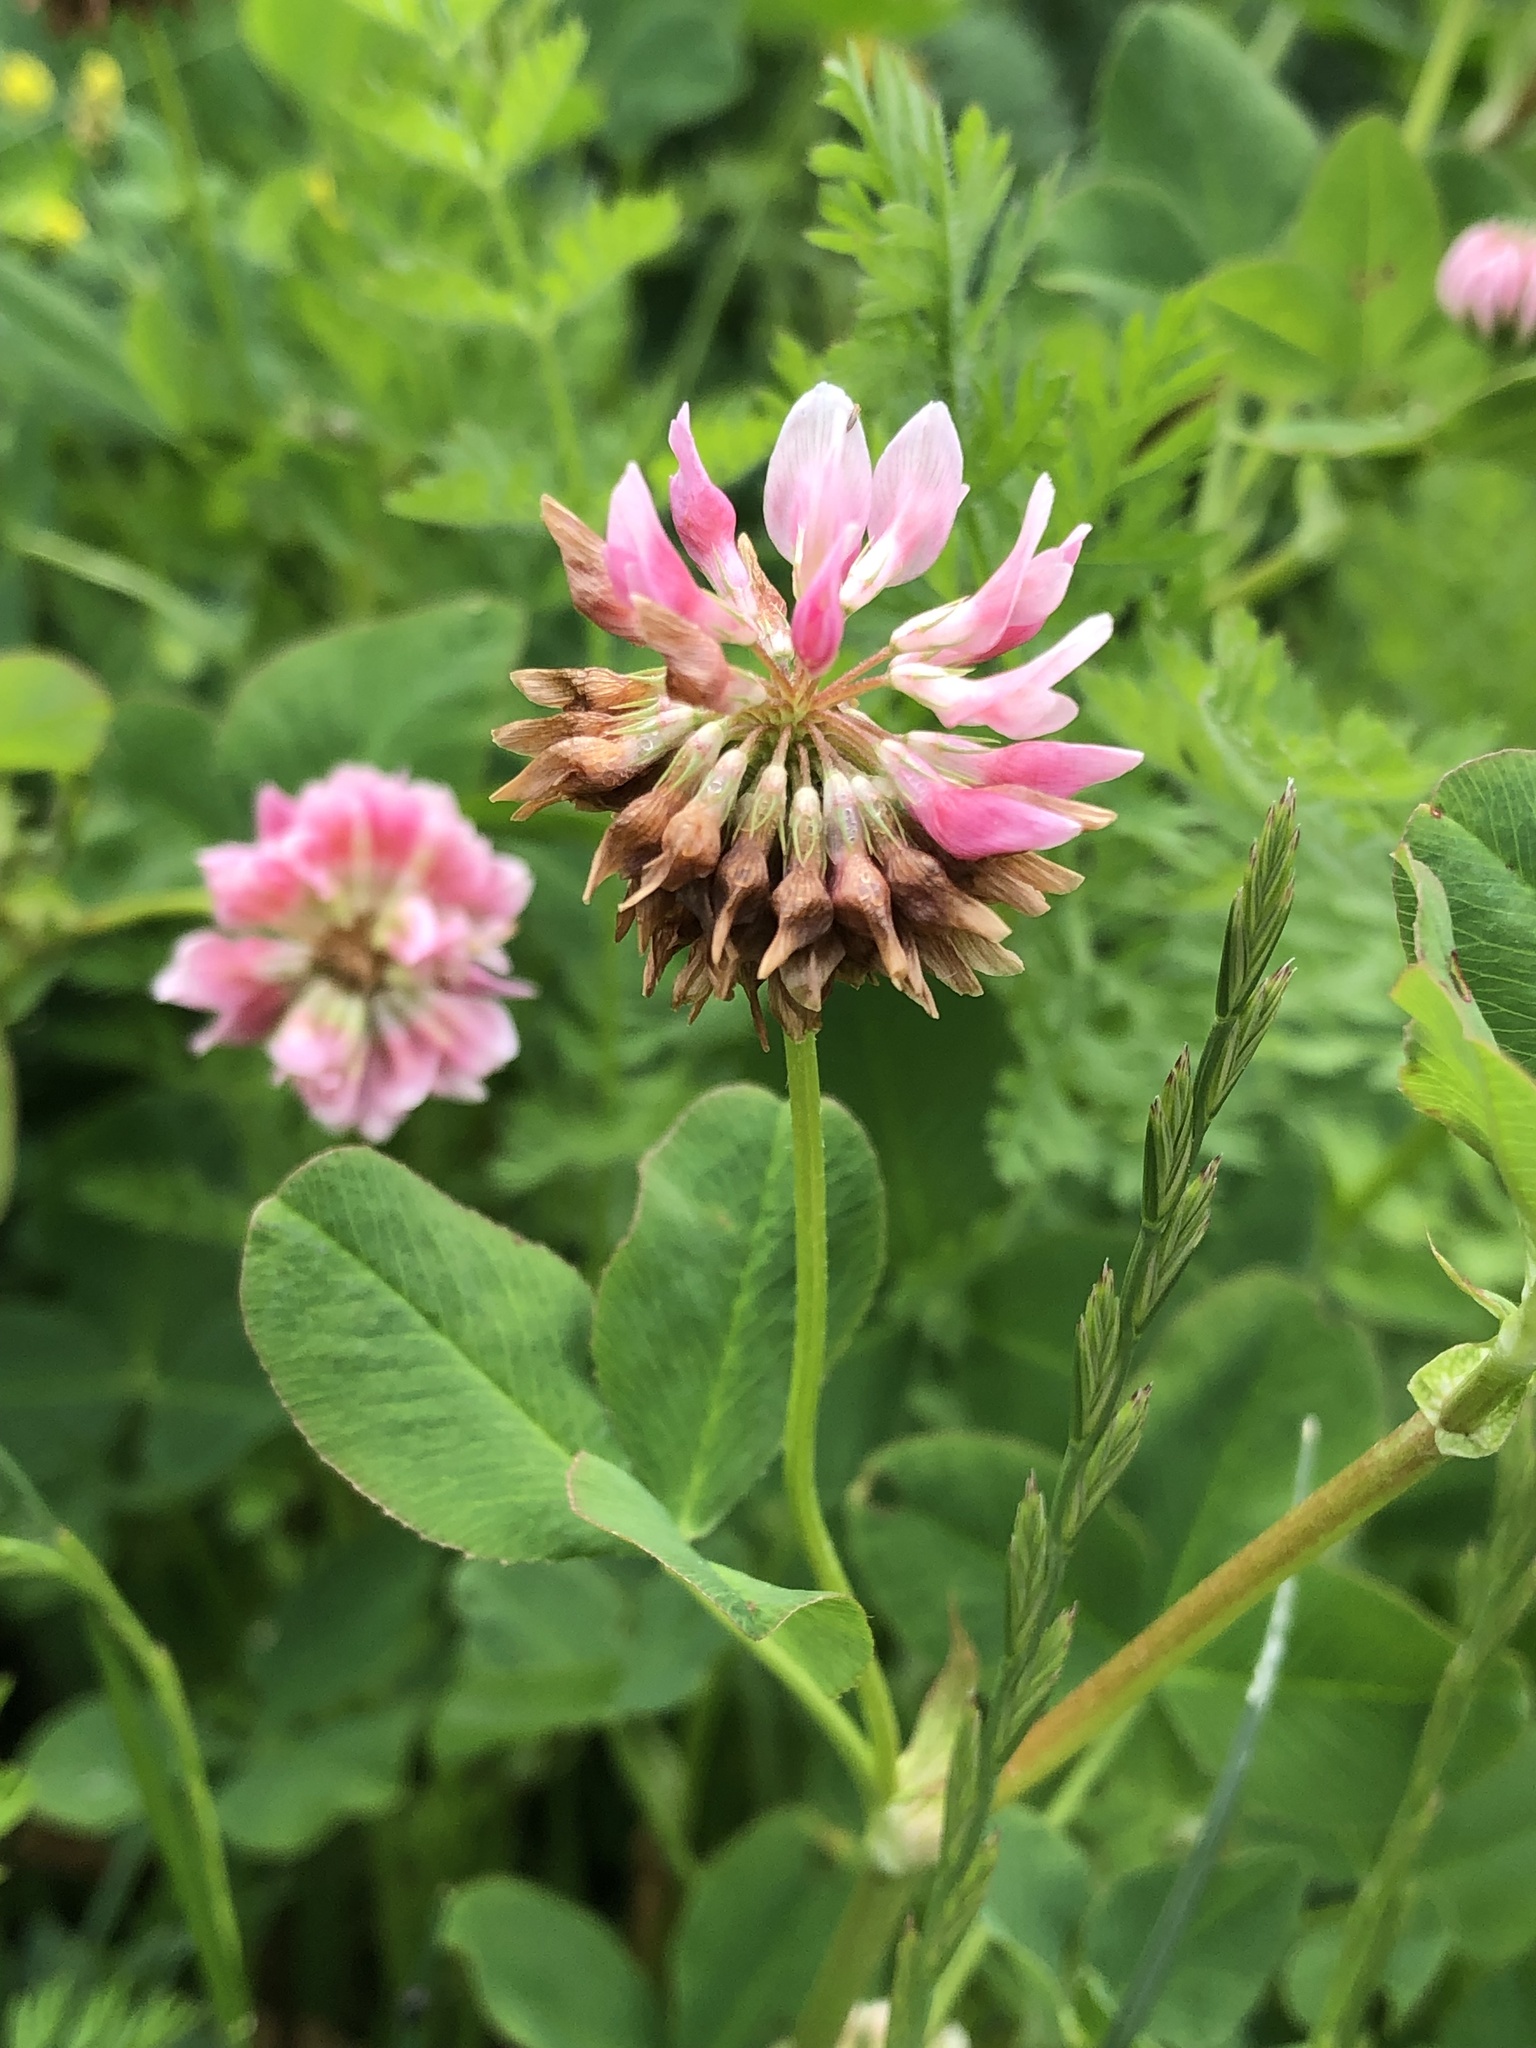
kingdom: Plantae
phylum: Tracheophyta
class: Magnoliopsida
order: Fabales
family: Fabaceae
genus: Trifolium
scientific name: Trifolium hybridum
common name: Alsike clover
